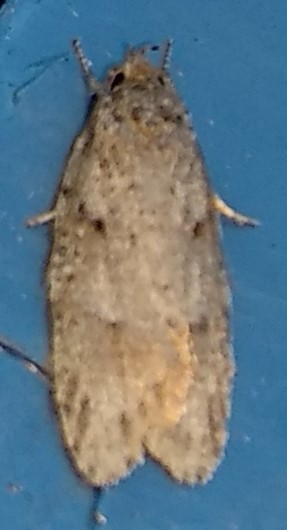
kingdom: Animalia
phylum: Arthropoda
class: Insecta
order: Lepidoptera
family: Depressariidae
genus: Bibarrambla
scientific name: Bibarrambla allenella
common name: Bog bibarrambla moth
